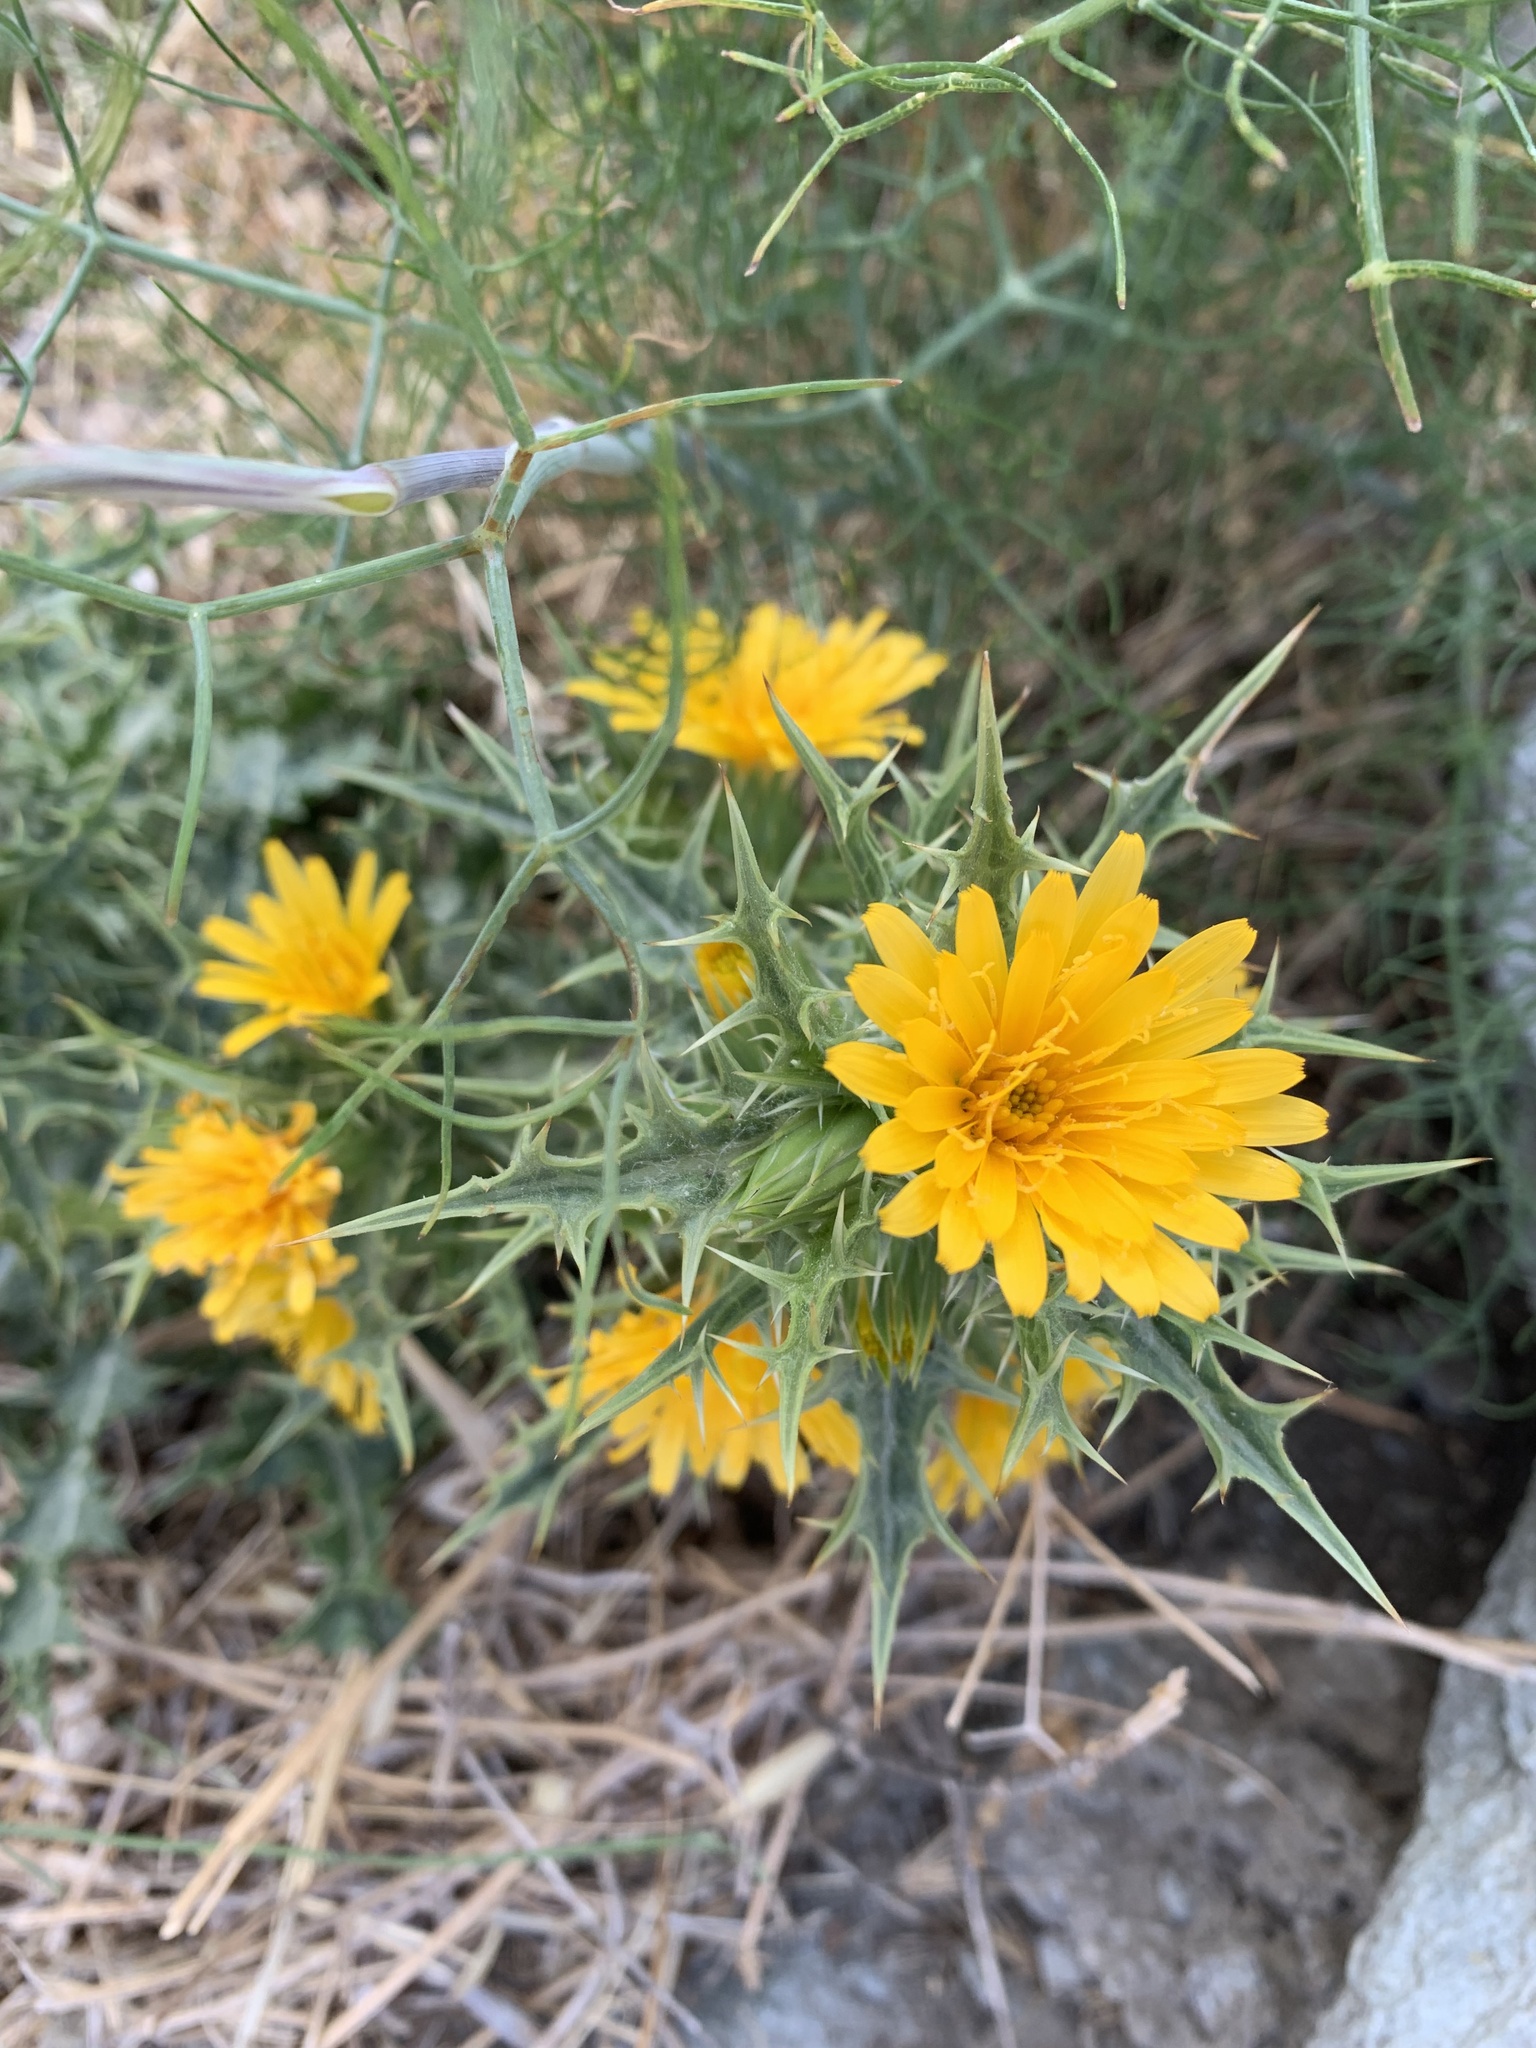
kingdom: Plantae
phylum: Tracheophyta
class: Magnoliopsida
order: Asterales
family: Asteraceae
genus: Scolymus
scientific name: Scolymus hispanicus
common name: Golden thistle
